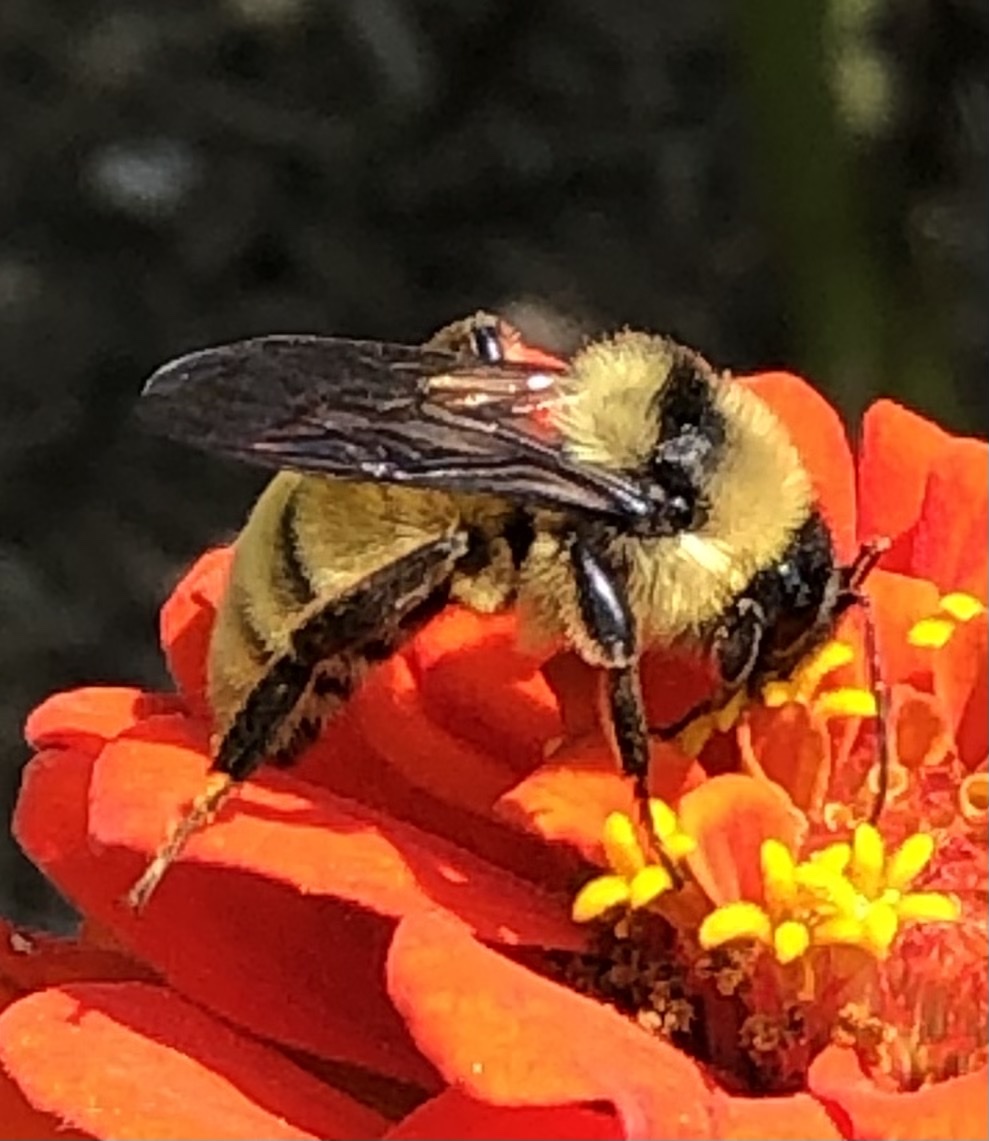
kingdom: Animalia
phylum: Arthropoda
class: Insecta
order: Hymenoptera
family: Apidae
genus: Bombus
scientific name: Bombus pensylvanicus
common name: Bumble bee
